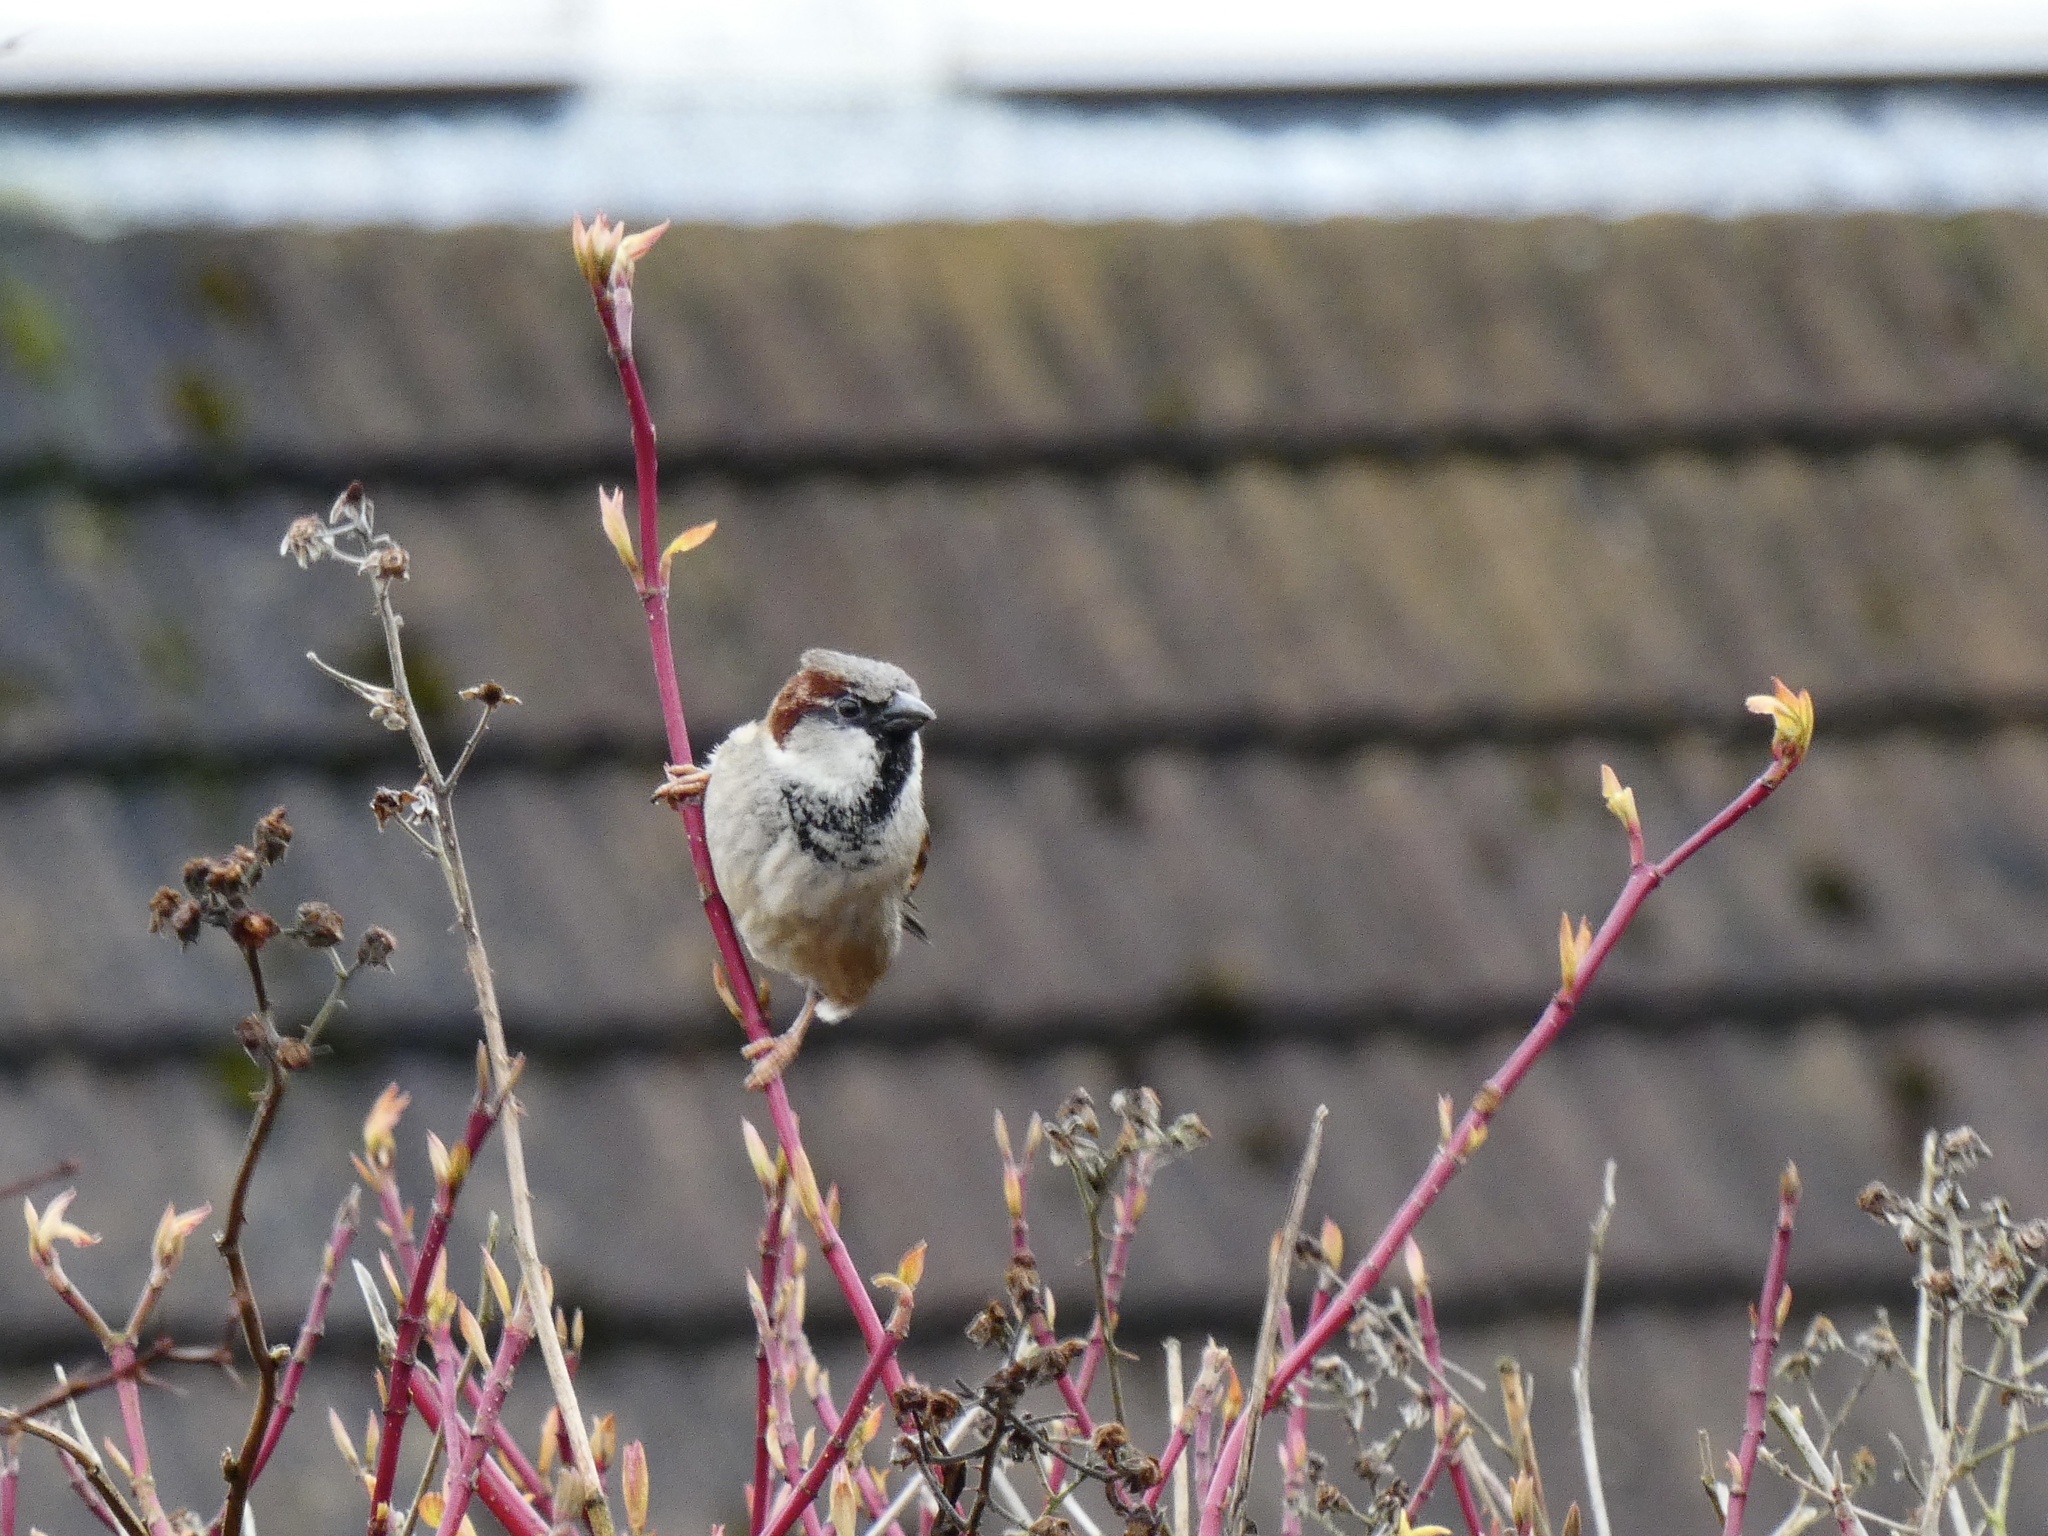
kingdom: Animalia
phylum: Chordata
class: Aves
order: Passeriformes
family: Passeridae
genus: Passer
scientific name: Passer domesticus
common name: House sparrow
